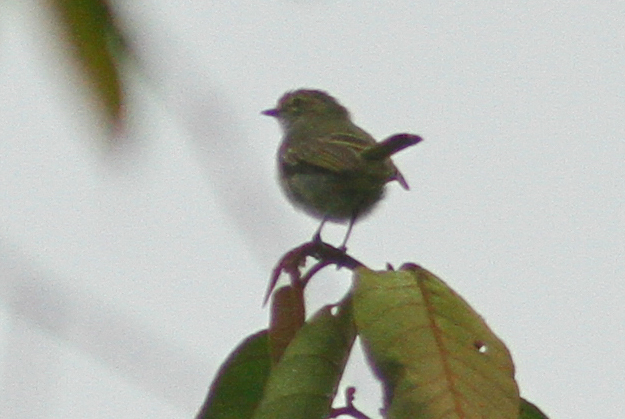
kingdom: Animalia
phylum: Chordata
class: Aves
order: Passeriformes
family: Tyrannidae
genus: Zimmerius
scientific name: Zimmerius chrysops
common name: Golden-faced tyrannulet
